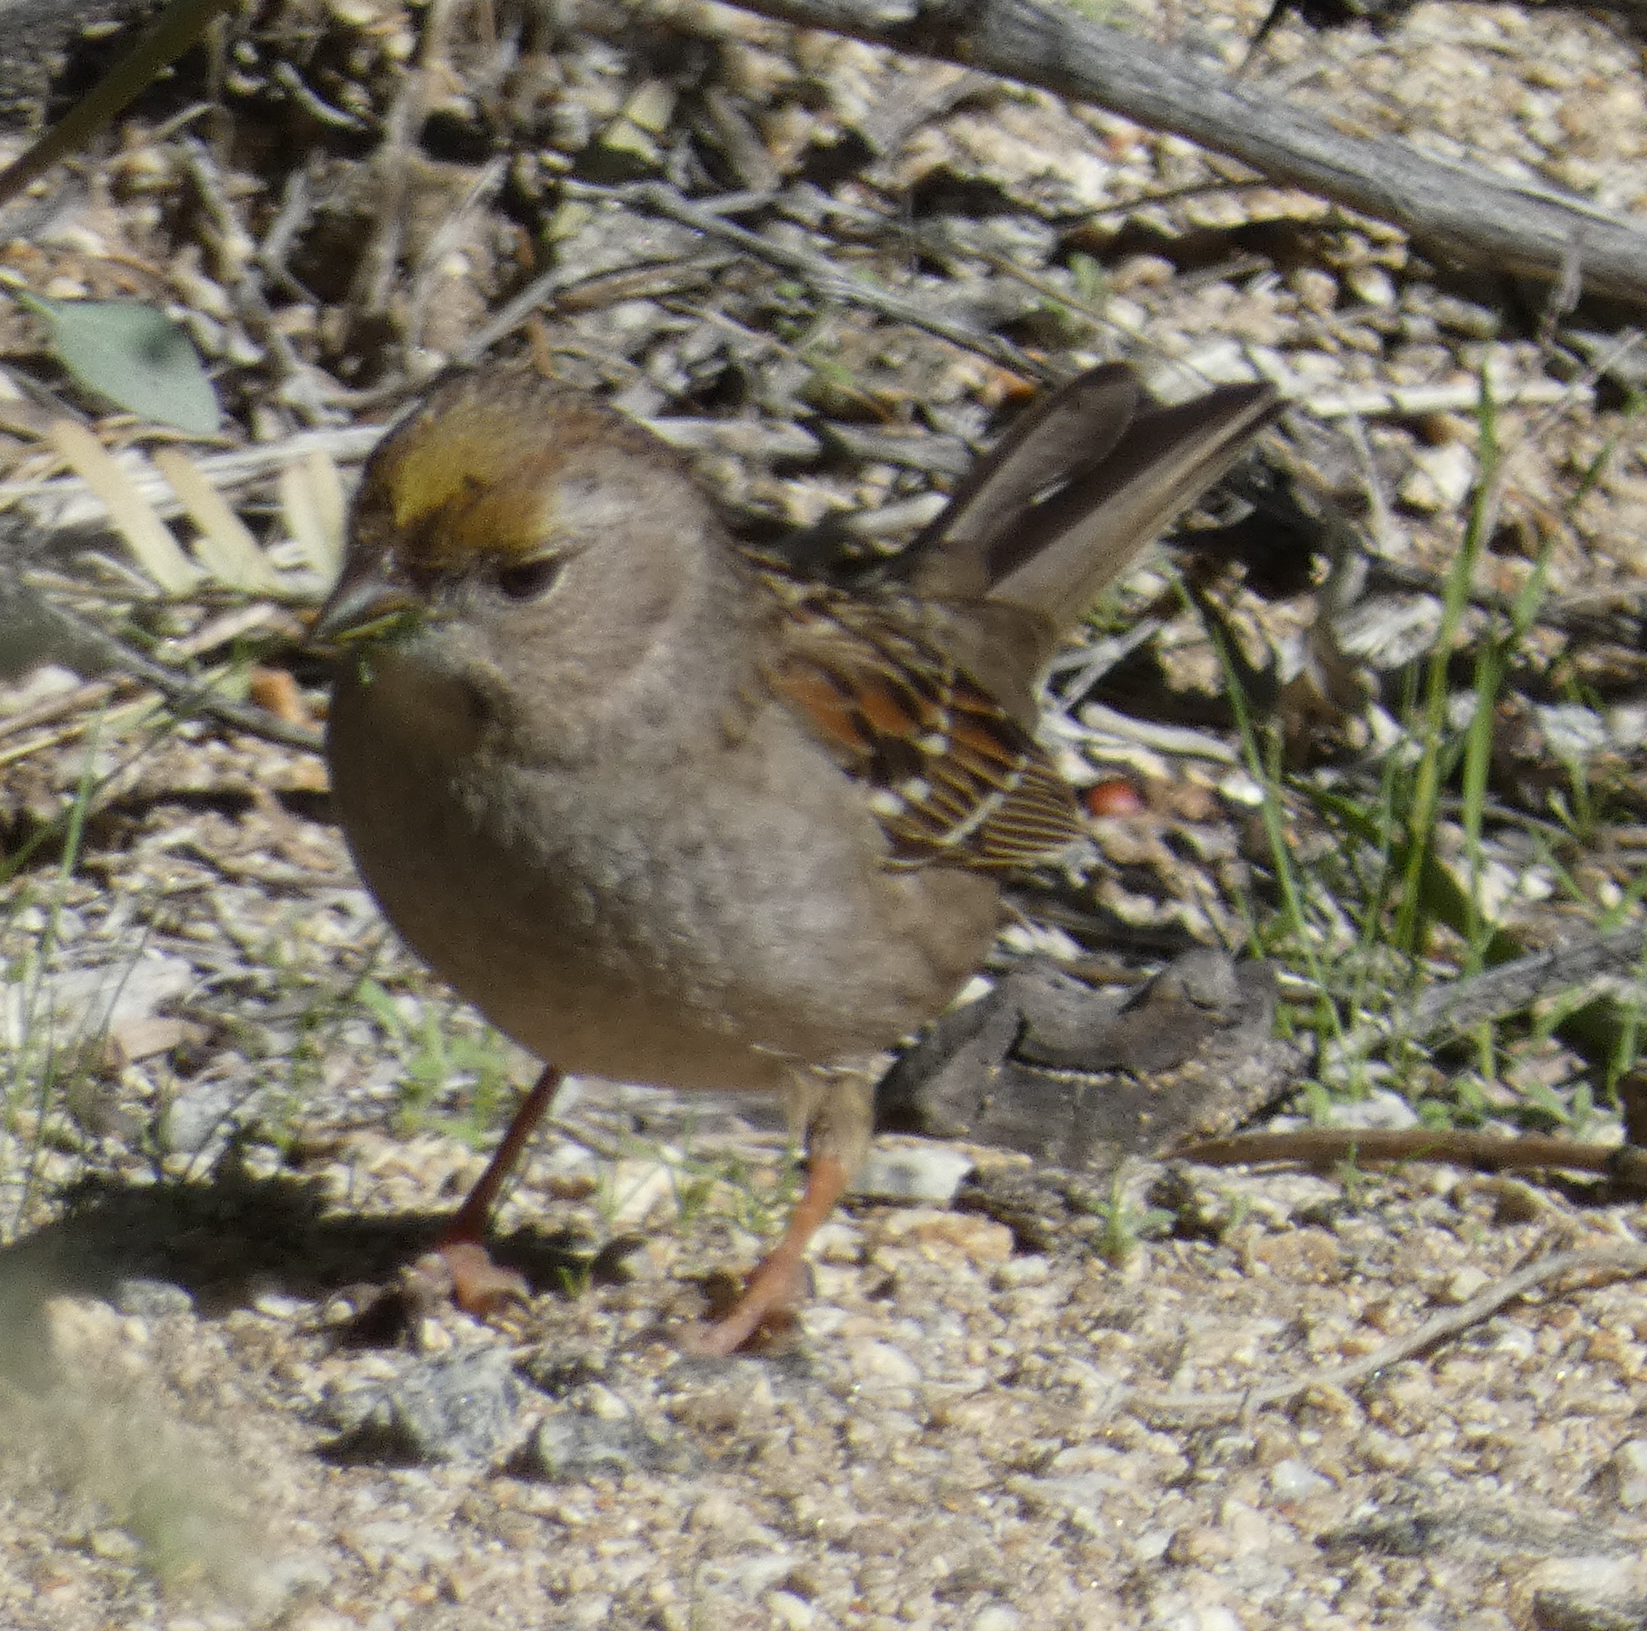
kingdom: Animalia
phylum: Chordata
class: Aves
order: Passeriformes
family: Passerellidae
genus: Zonotrichia
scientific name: Zonotrichia atricapilla
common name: Golden-crowned sparrow
